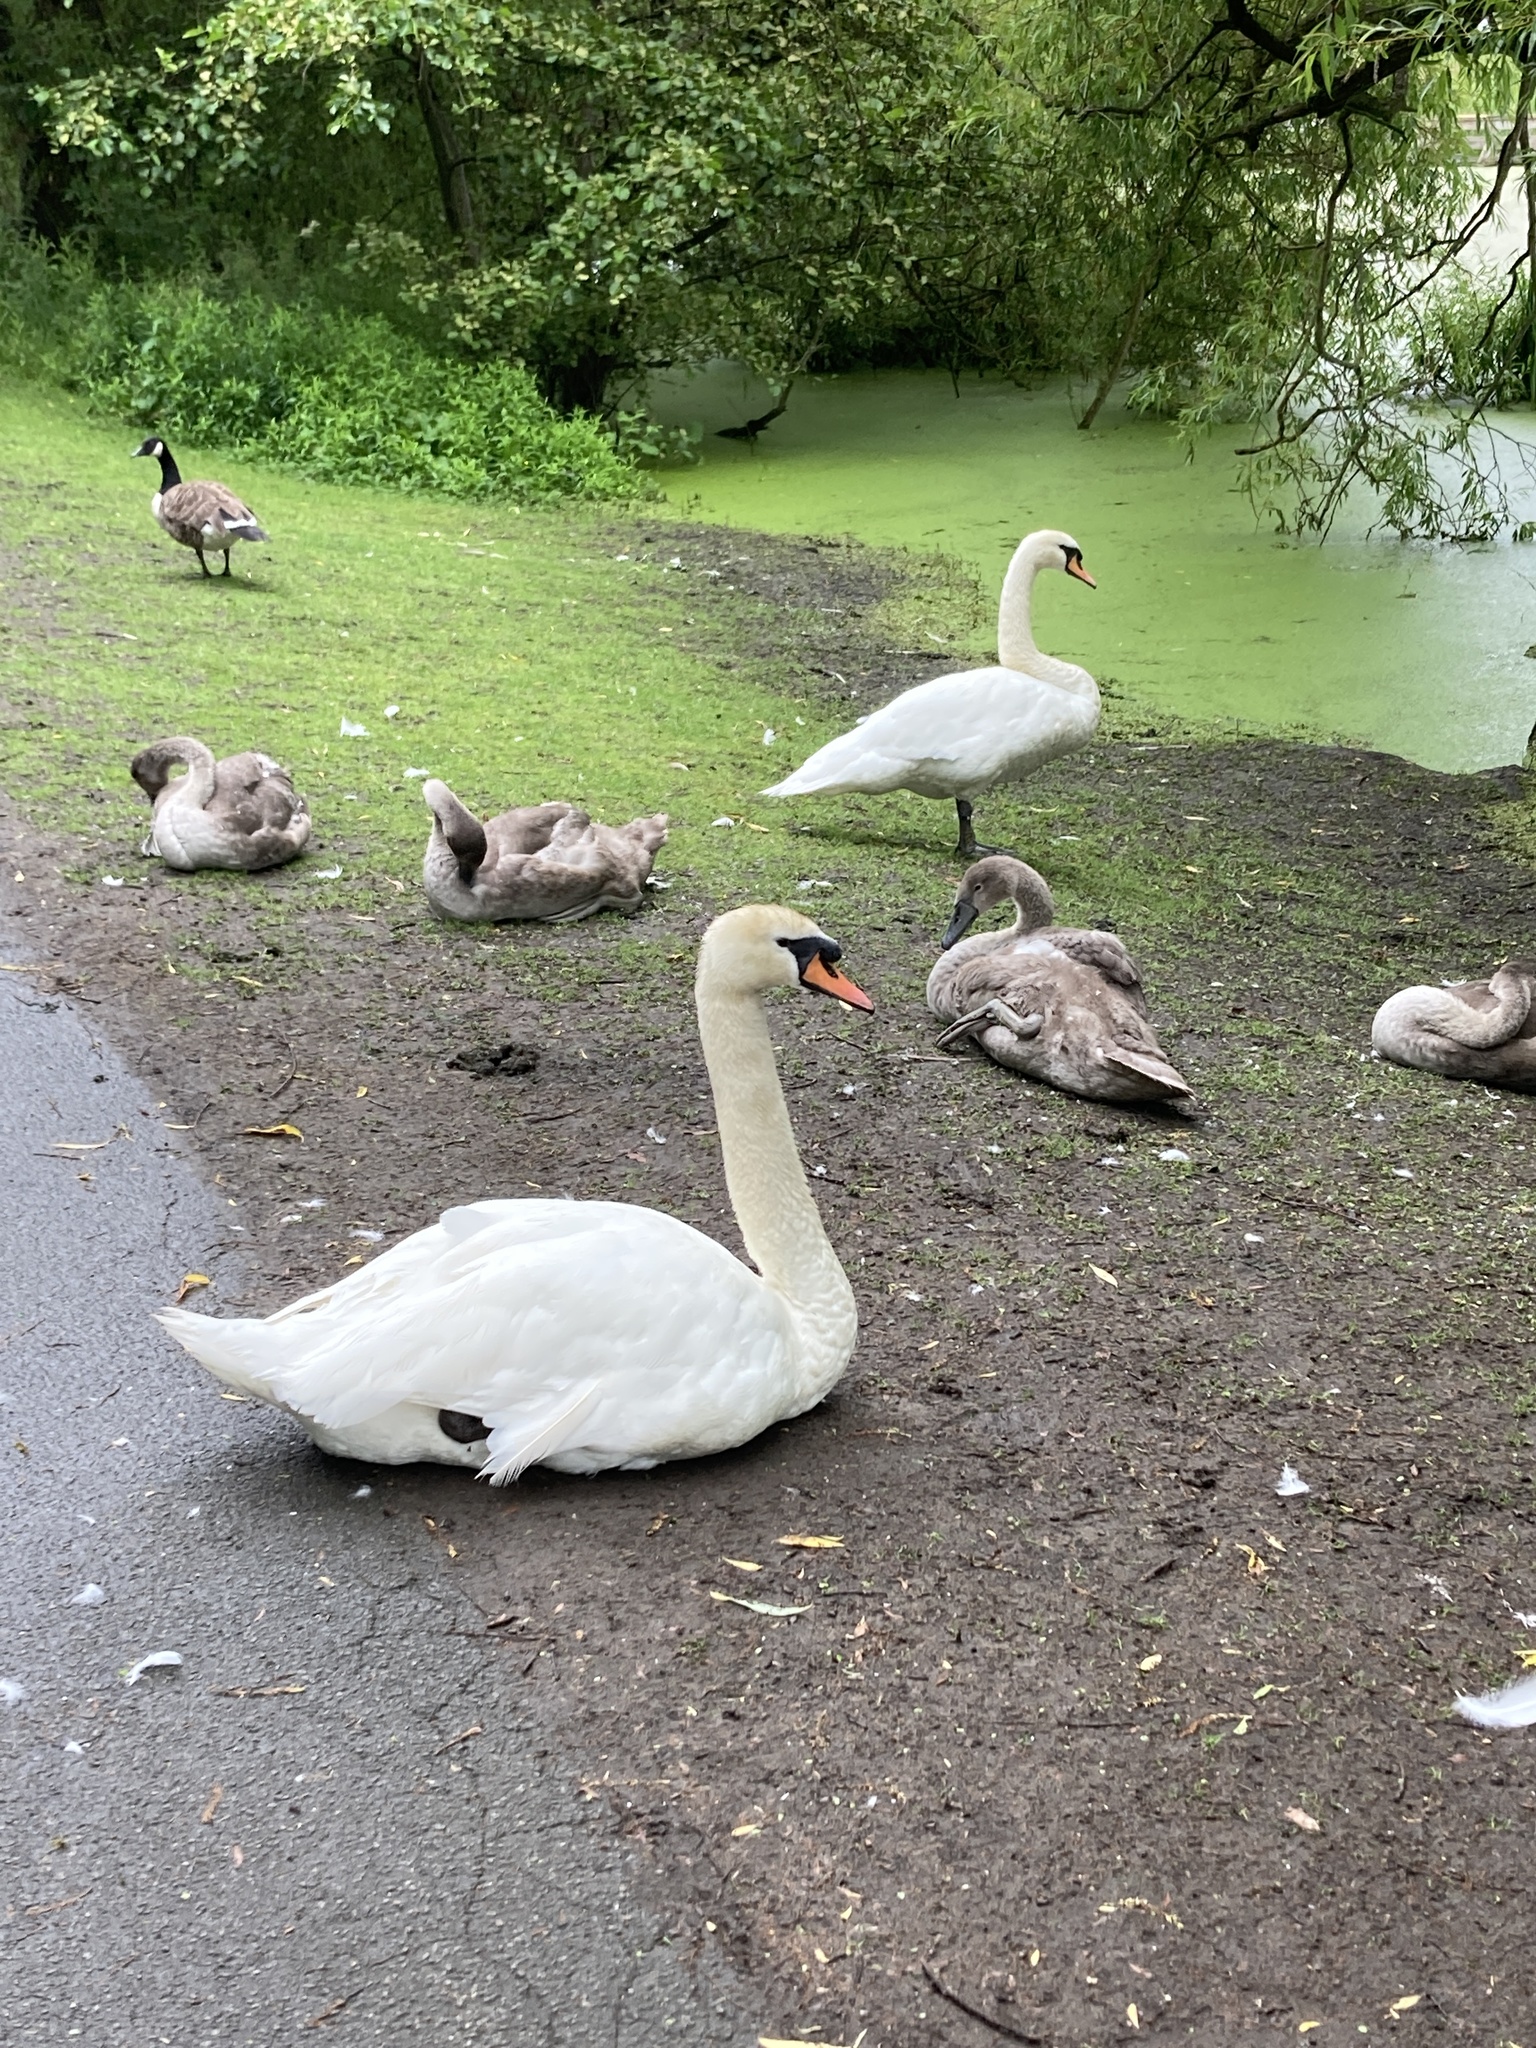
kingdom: Animalia
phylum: Chordata
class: Aves
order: Anseriformes
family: Anatidae
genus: Cygnus
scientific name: Cygnus olor
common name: Mute swan
